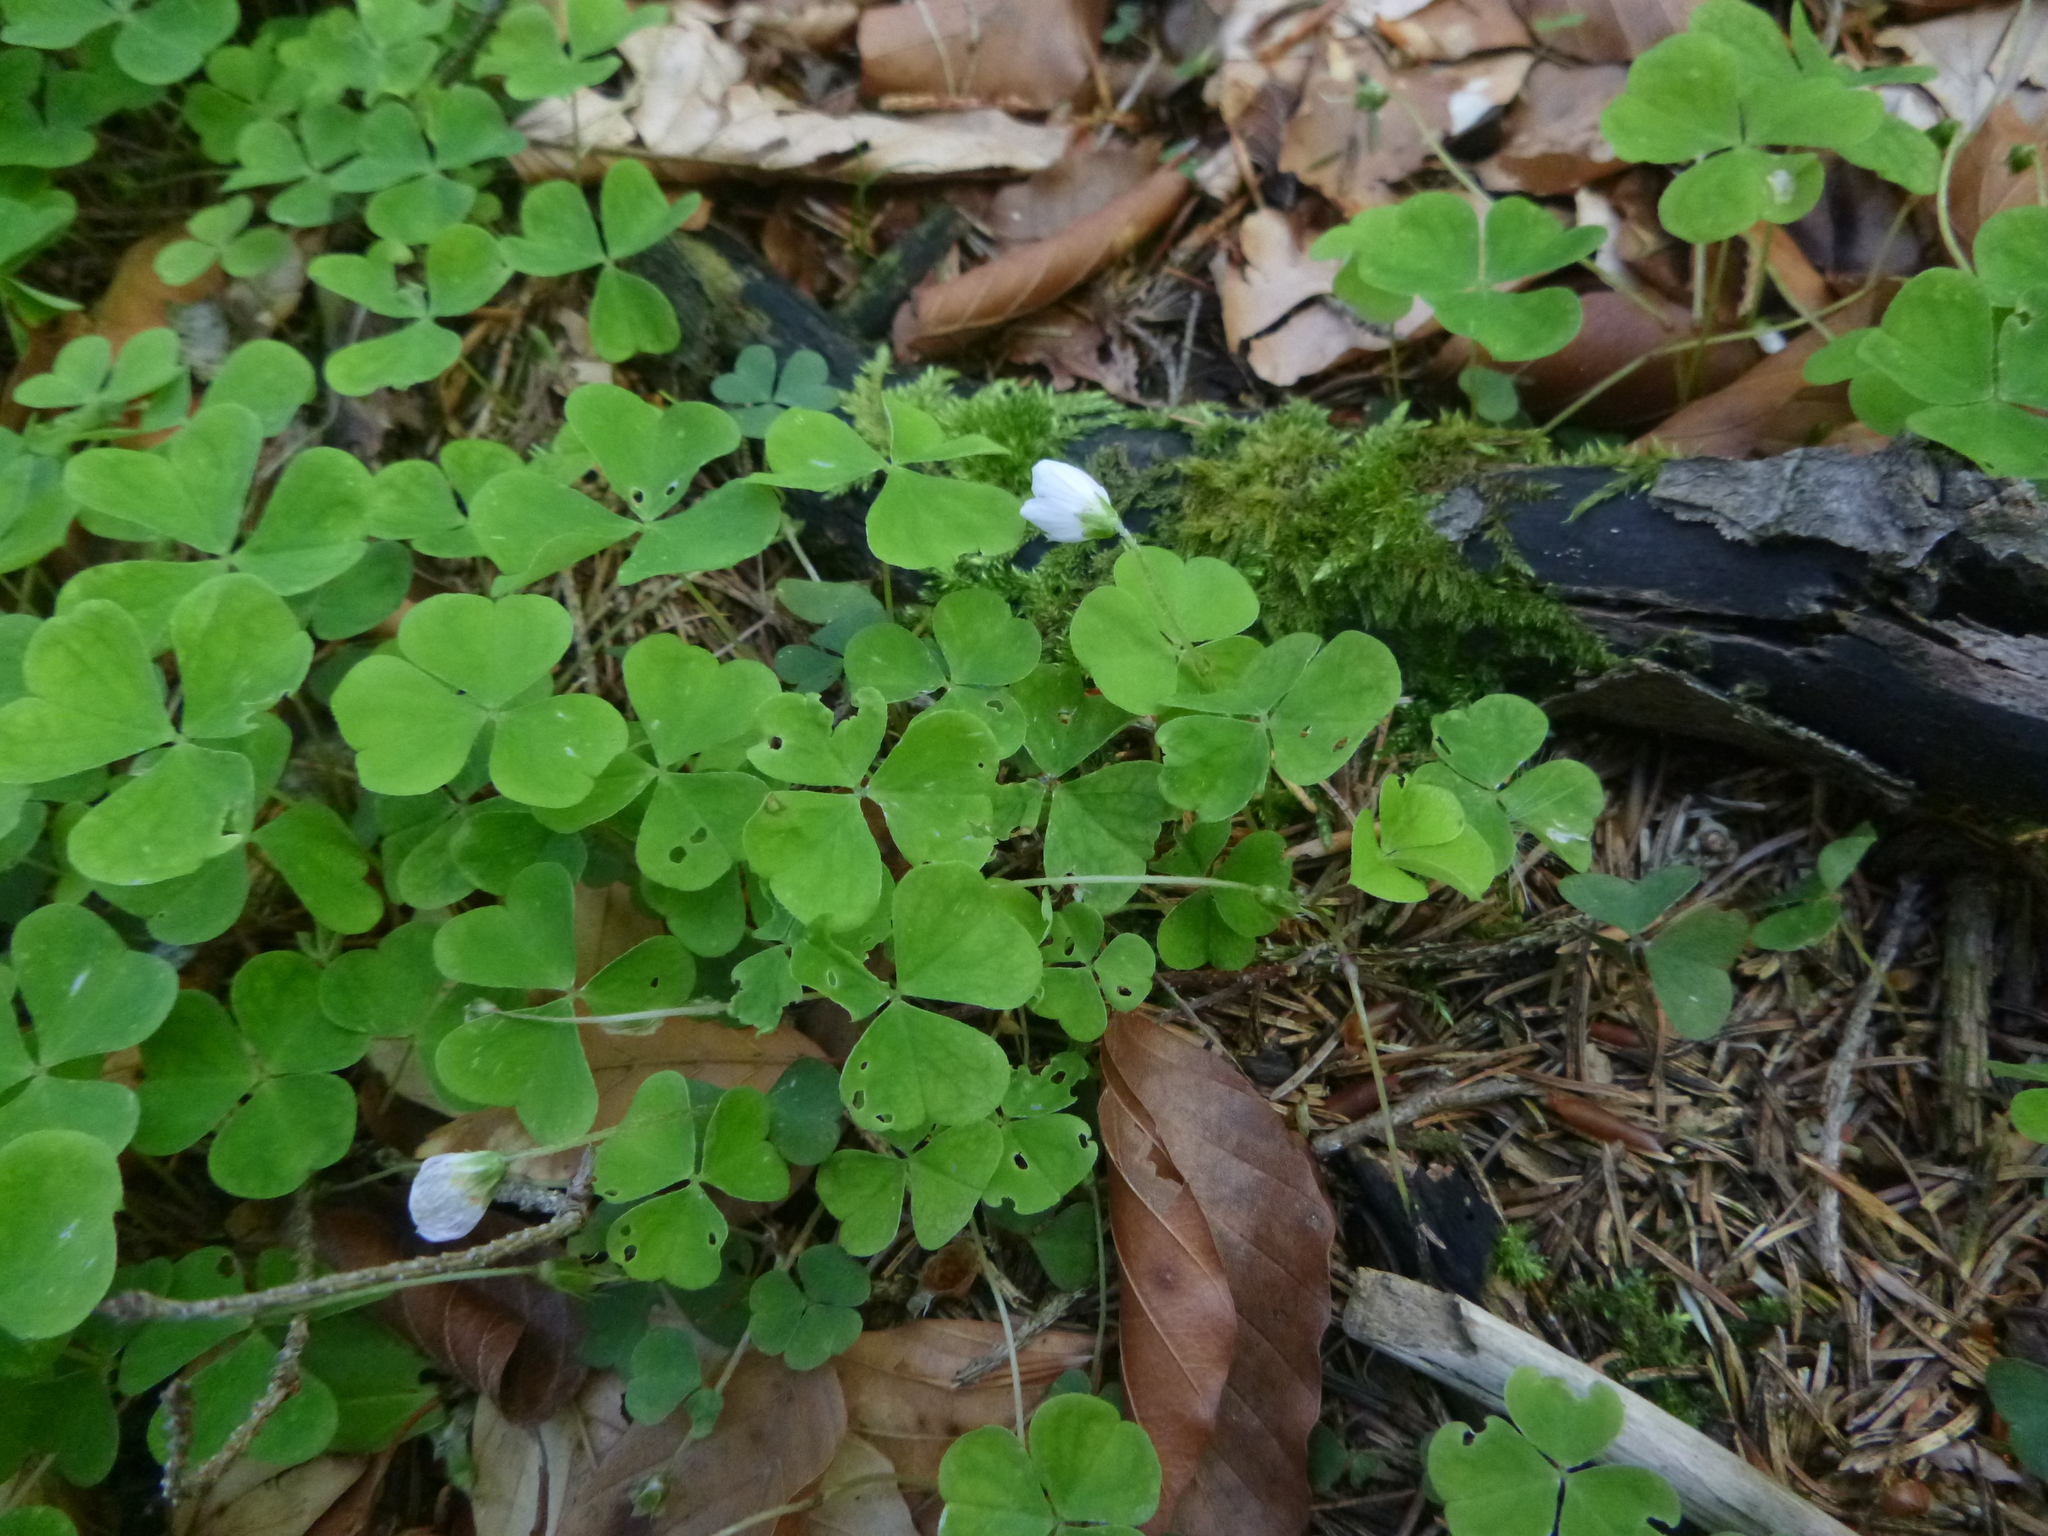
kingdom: Plantae
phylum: Tracheophyta
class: Magnoliopsida
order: Oxalidales
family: Oxalidaceae
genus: Oxalis
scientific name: Oxalis acetosella
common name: Wood-sorrel
